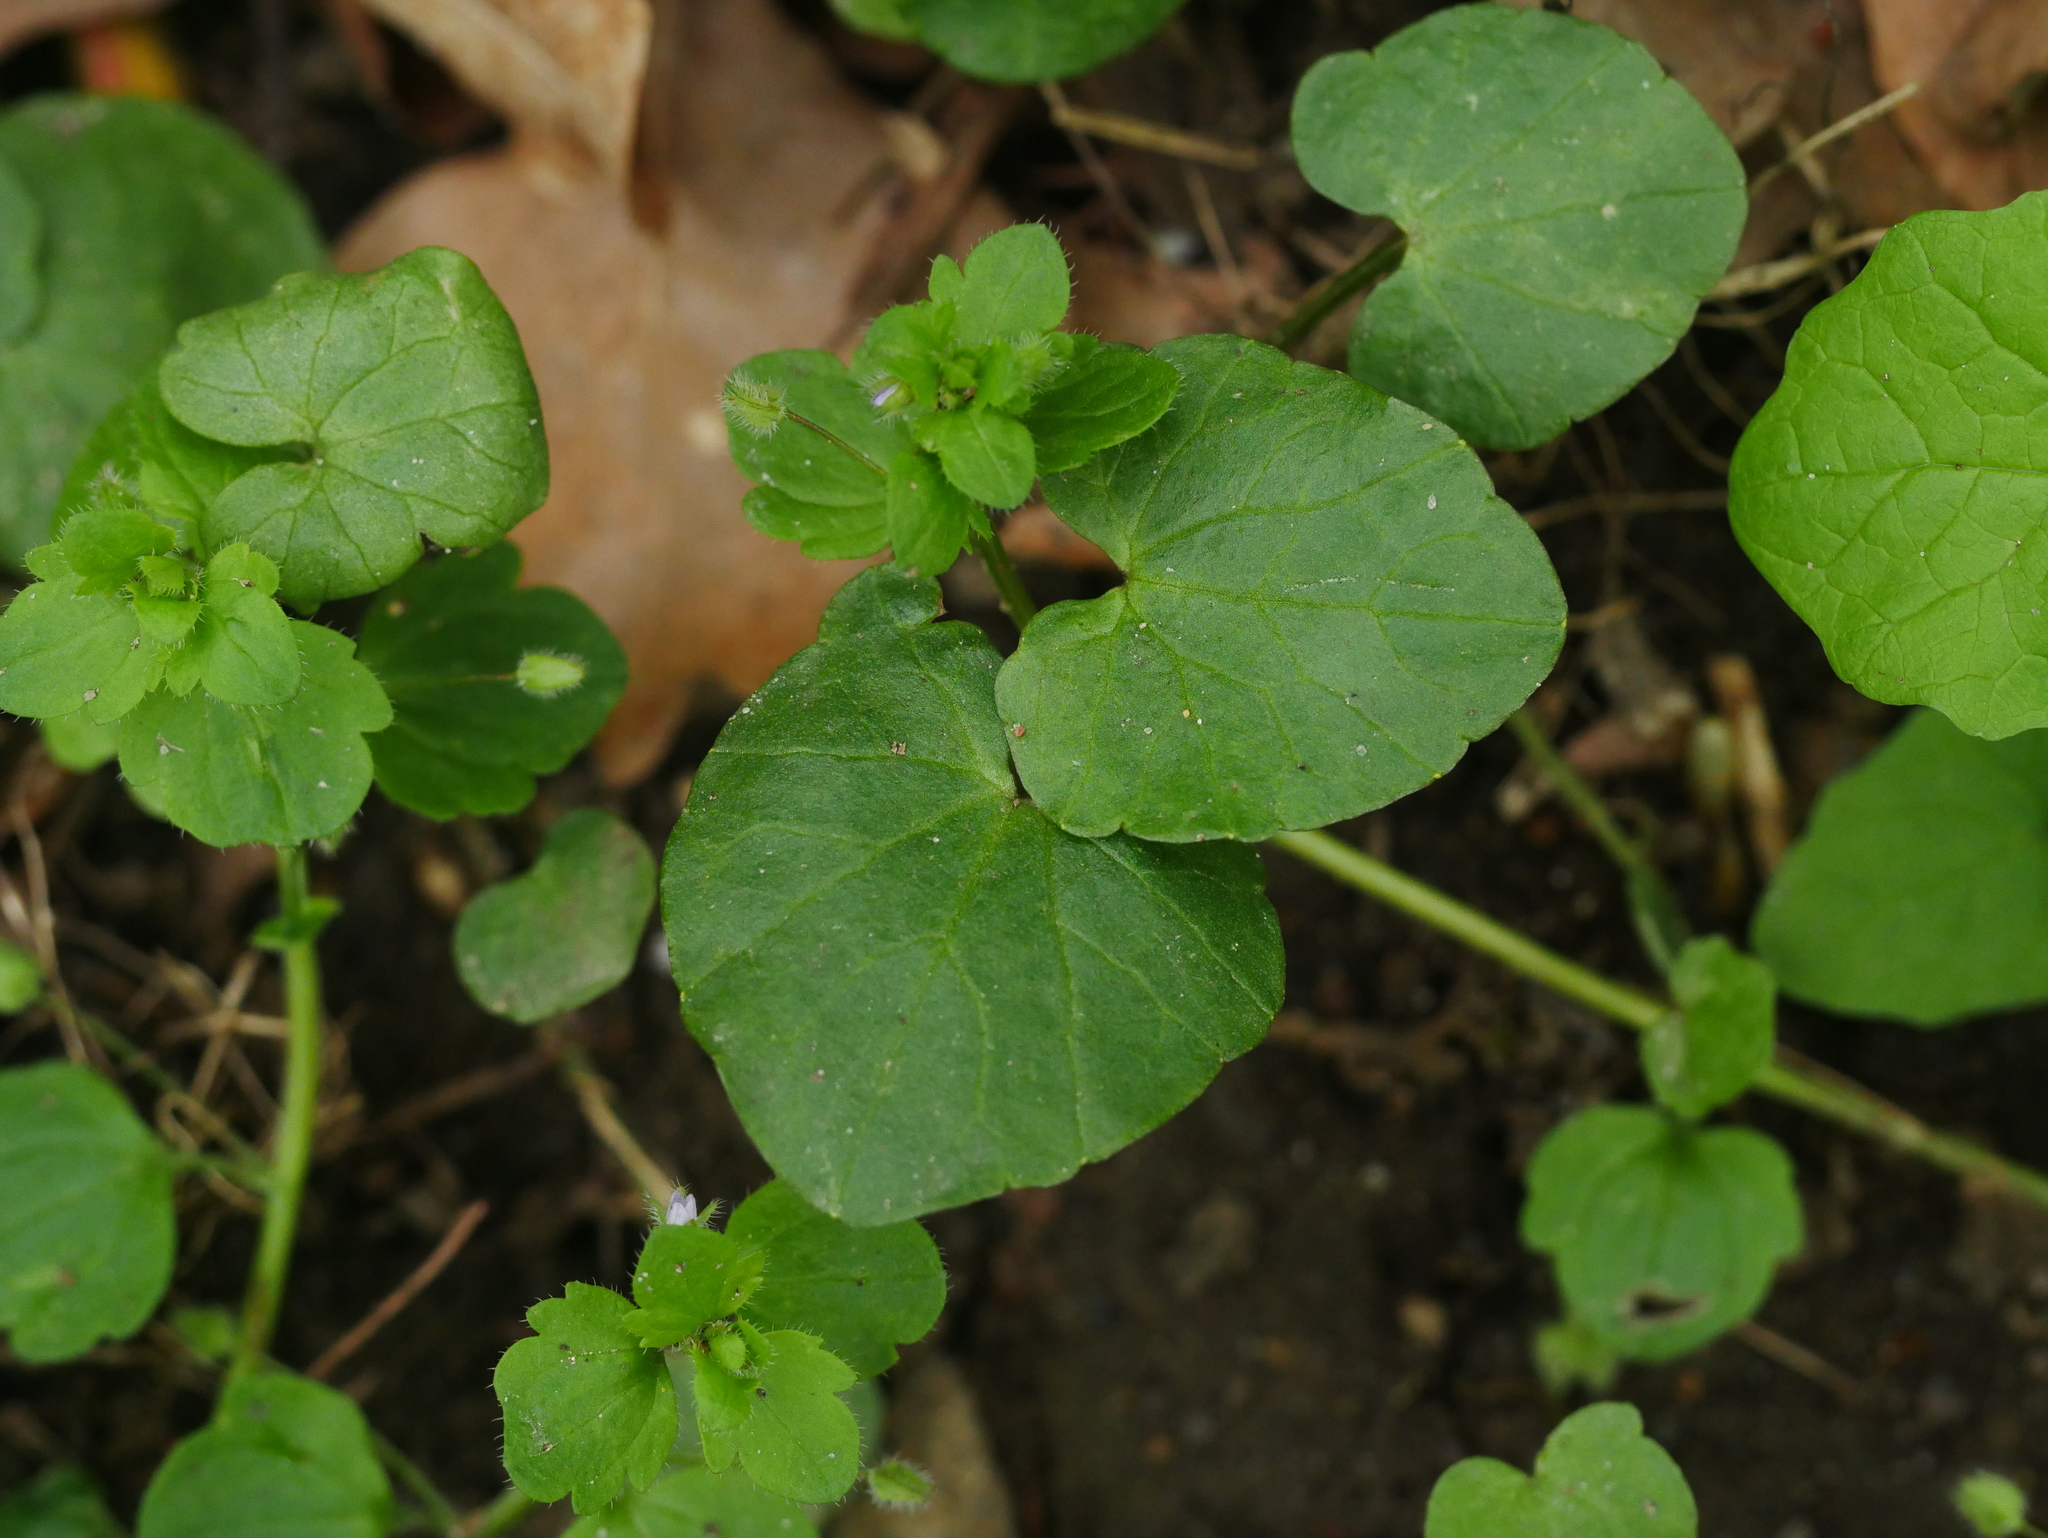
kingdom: Plantae
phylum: Tracheophyta
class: Magnoliopsida
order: Ranunculales
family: Ranunculaceae
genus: Ficaria
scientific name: Ficaria verna
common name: Lesser celandine
